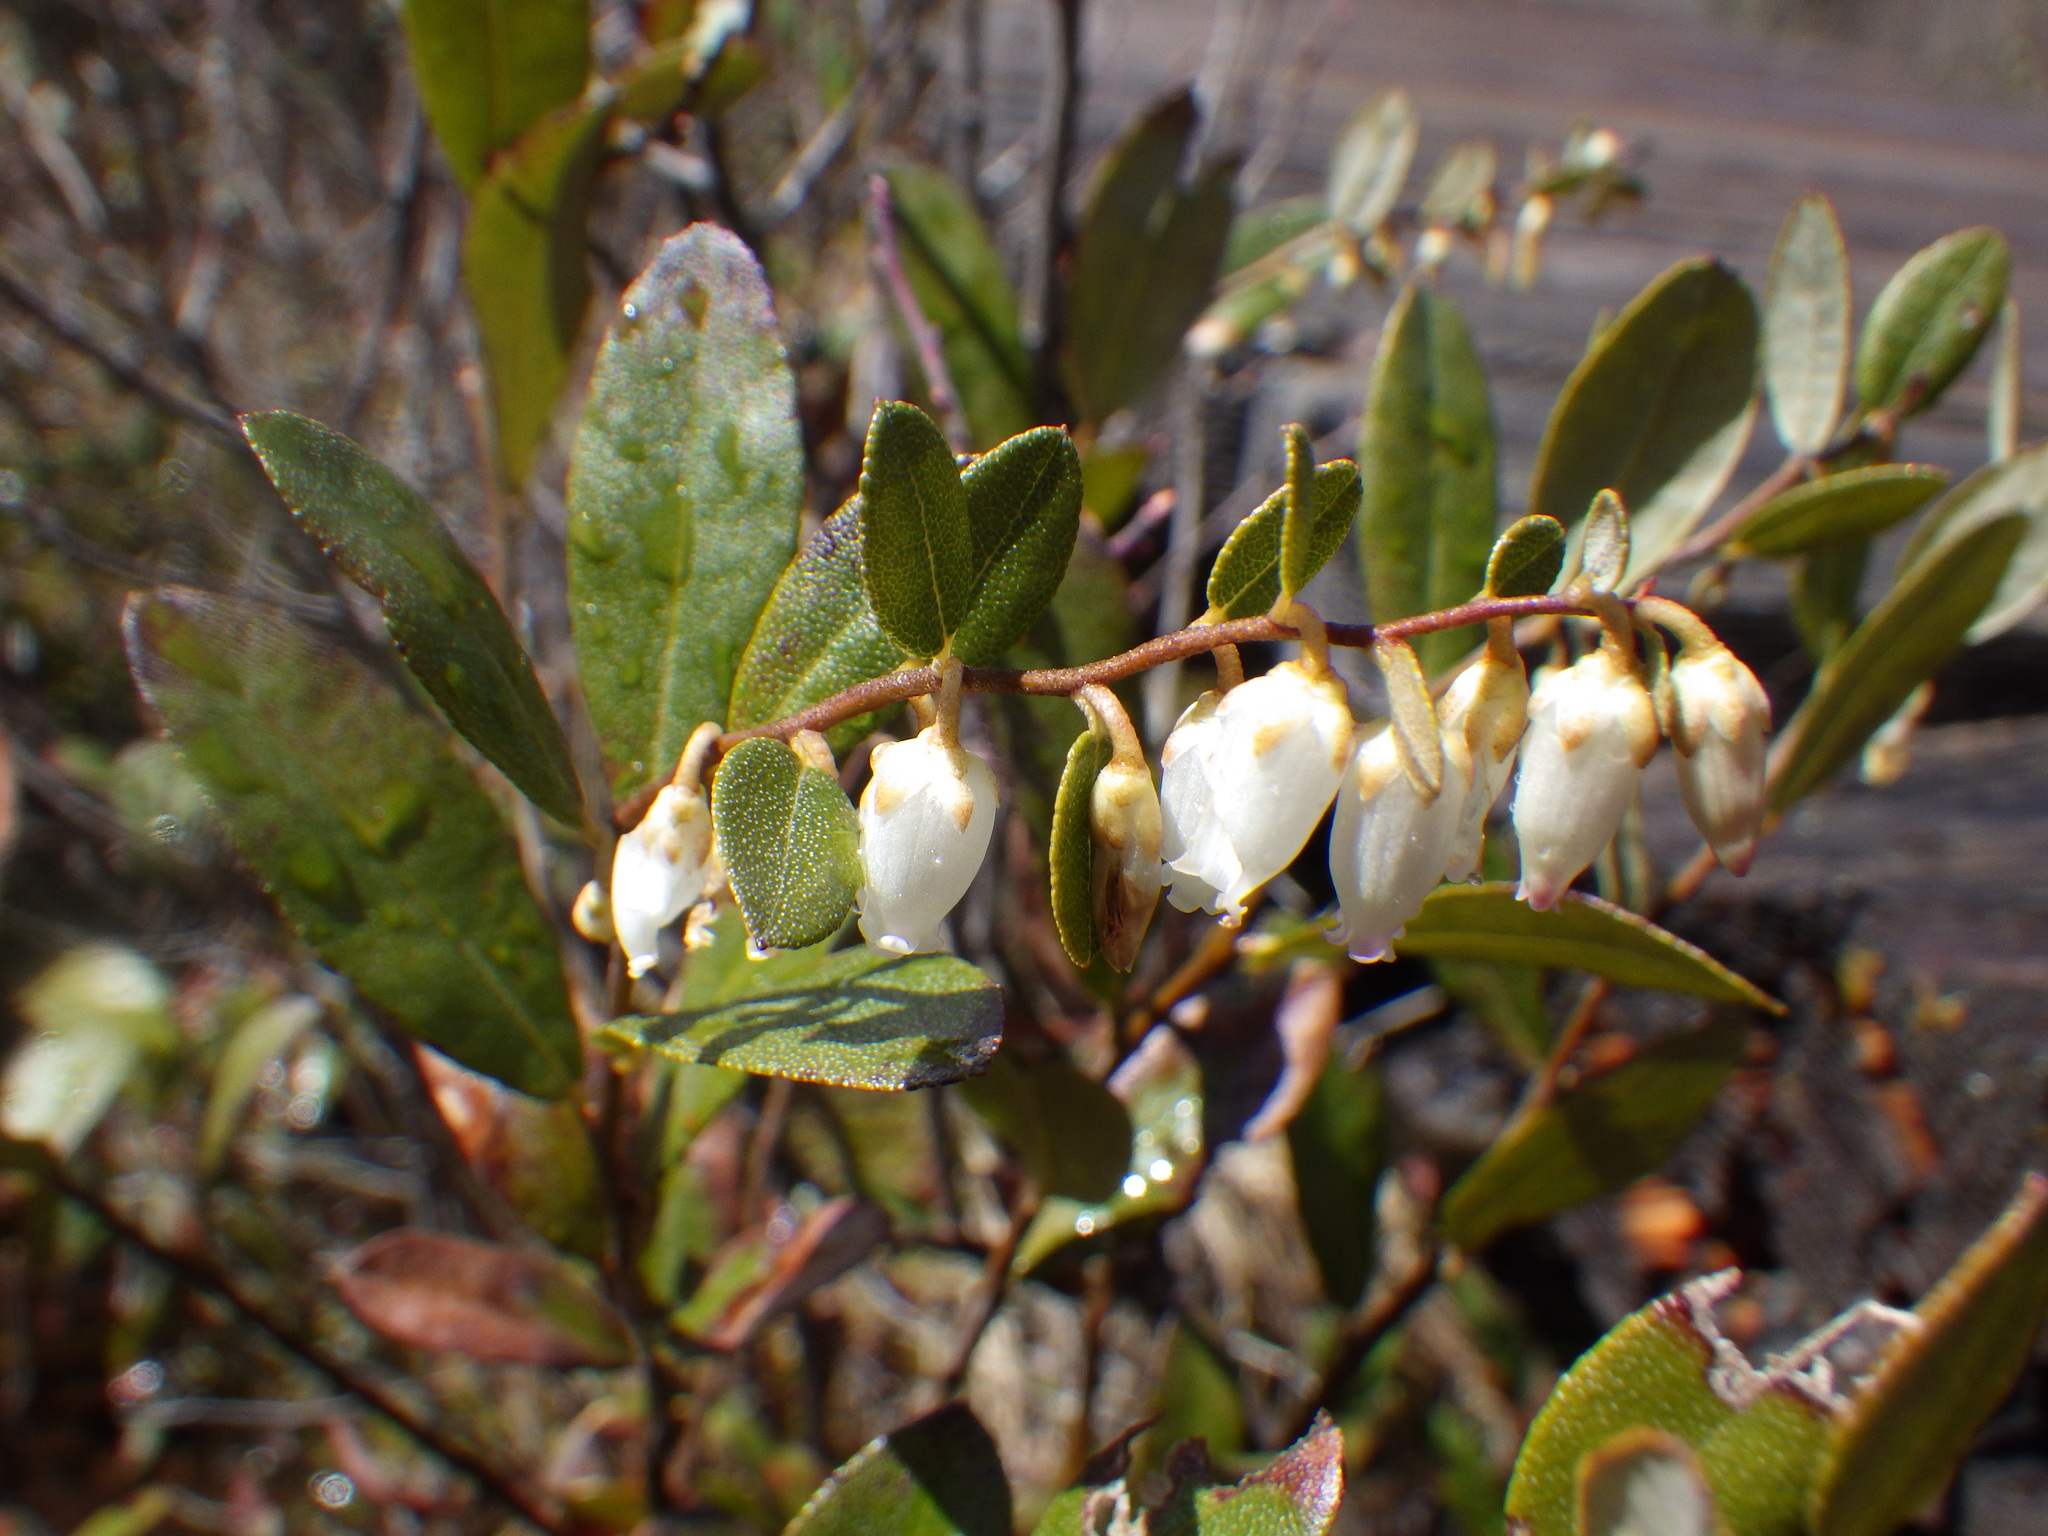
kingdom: Plantae
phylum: Tracheophyta
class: Magnoliopsida
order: Ericales
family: Ericaceae
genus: Chamaedaphne
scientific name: Chamaedaphne calyculata
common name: Leatherleaf
